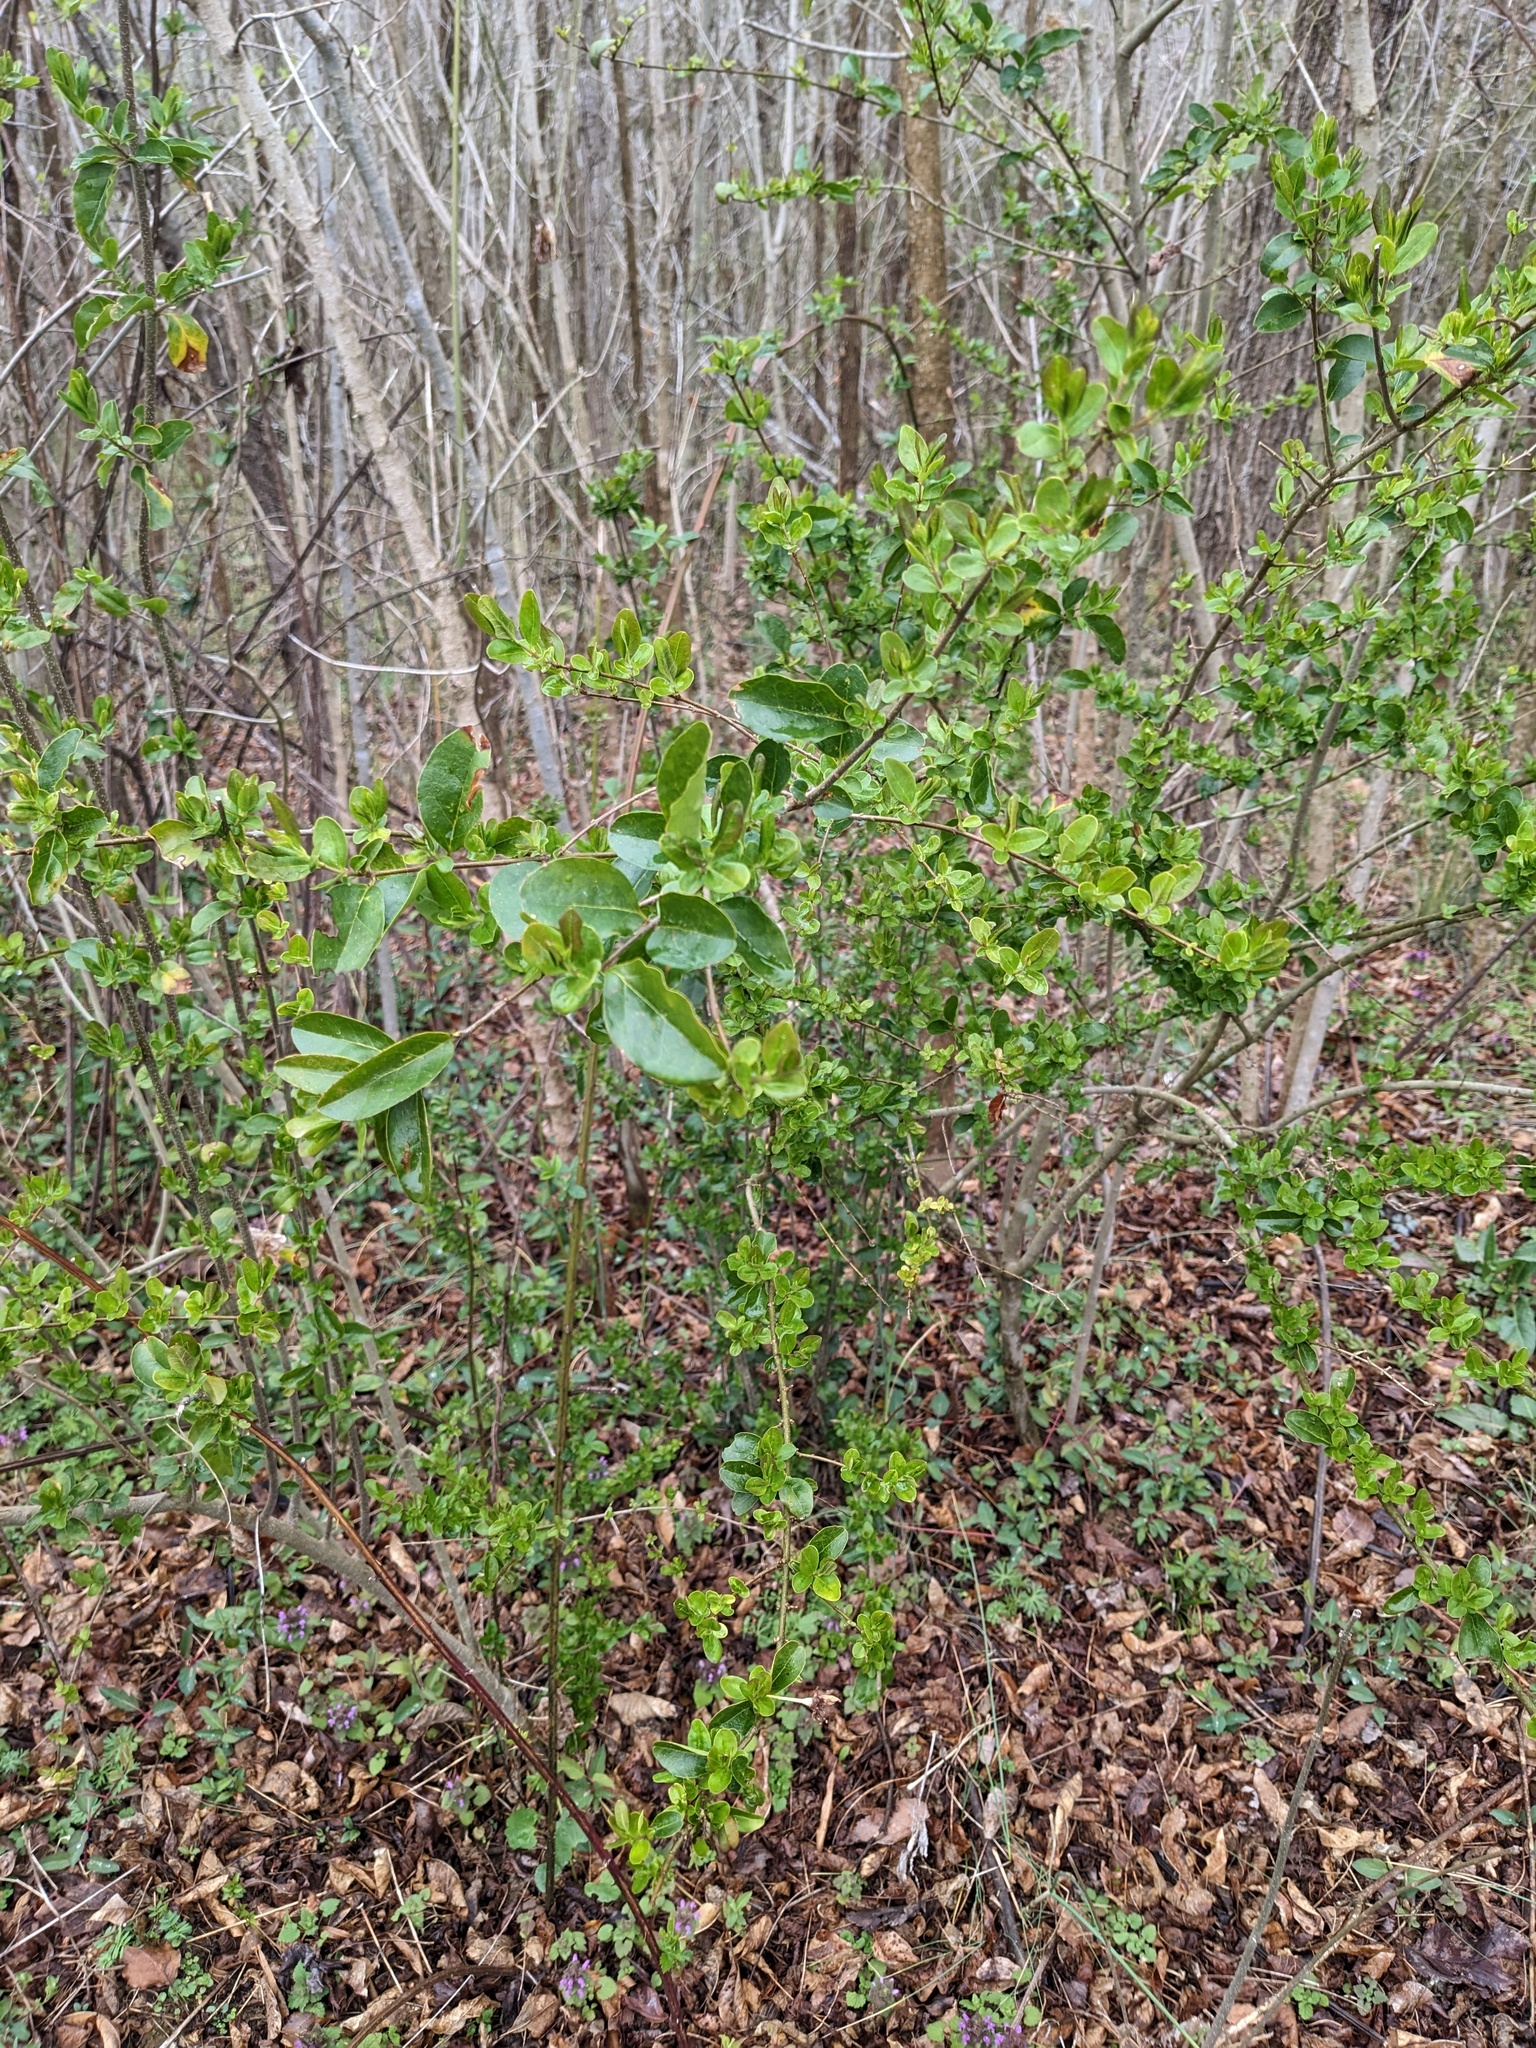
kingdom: Plantae
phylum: Tracheophyta
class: Magnoliopsida
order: Lamiales
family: Oleaceae
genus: Ligustrum
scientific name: Ligustrum sinense
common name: Chinese privet
